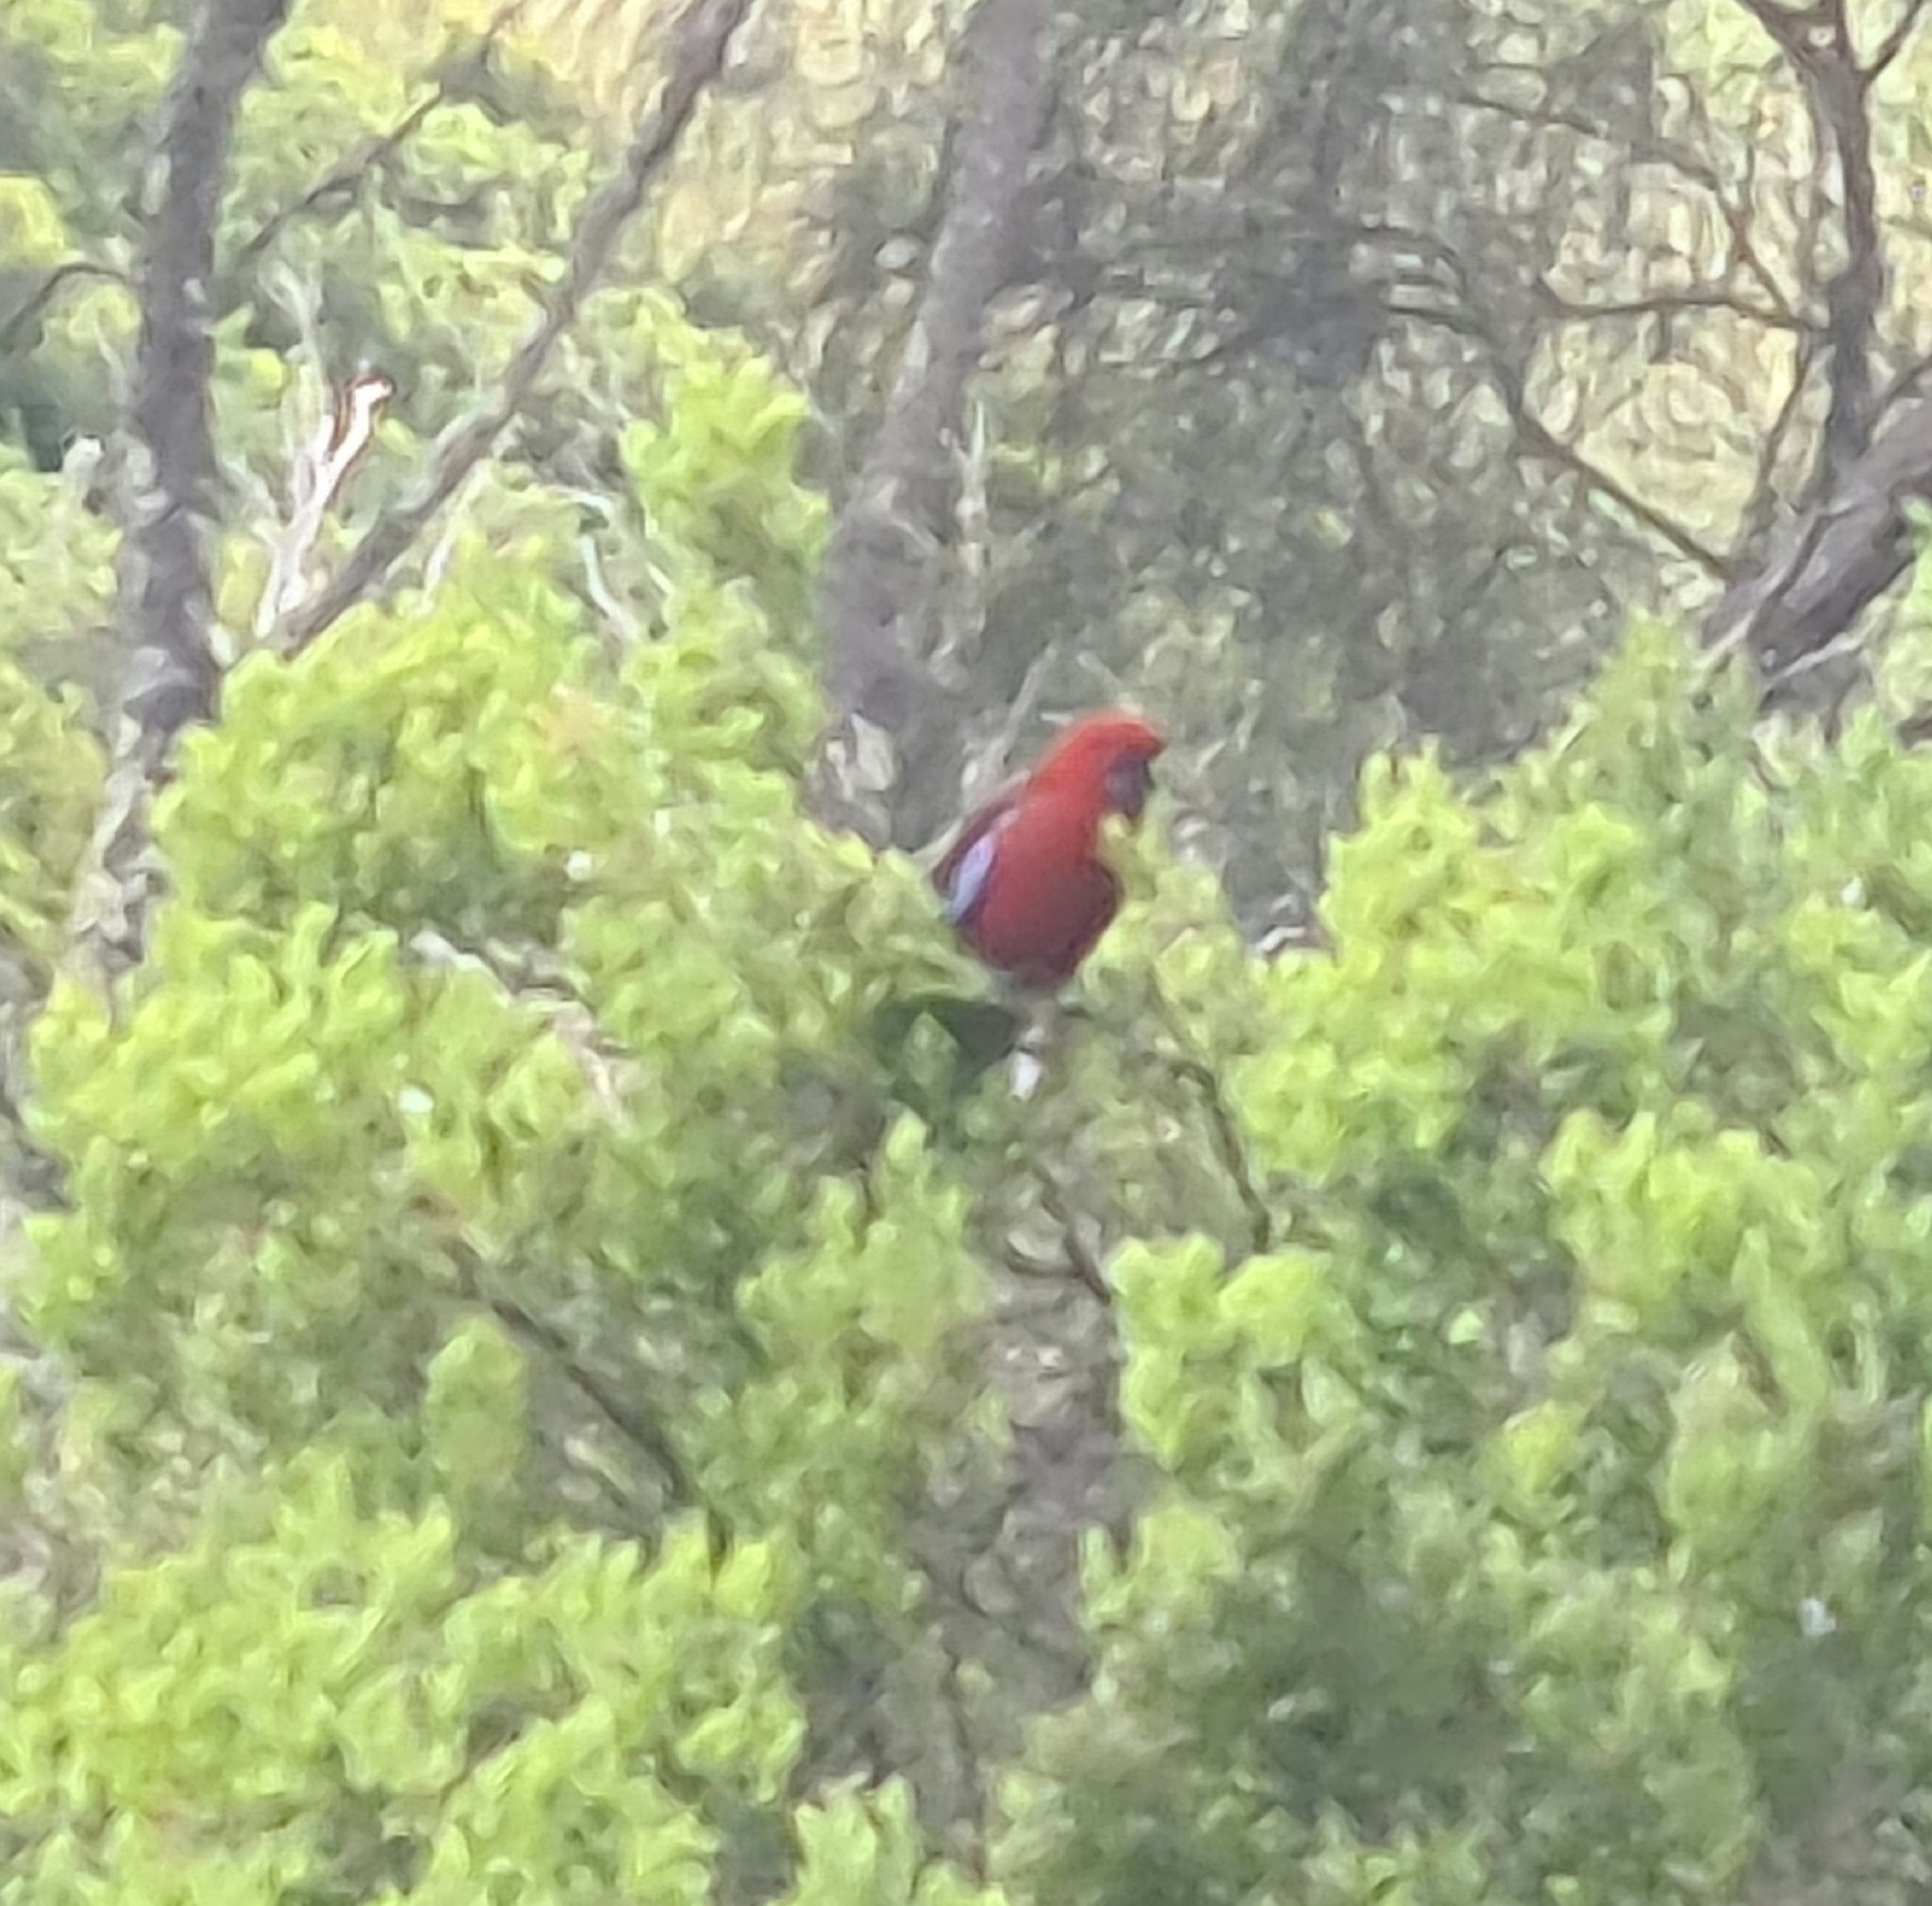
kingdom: Animalia
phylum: Chordata
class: Aves
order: Psittaciformes
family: Psittacidae
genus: Platycercus
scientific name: Platycercus elegans
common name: Crimson rosella
